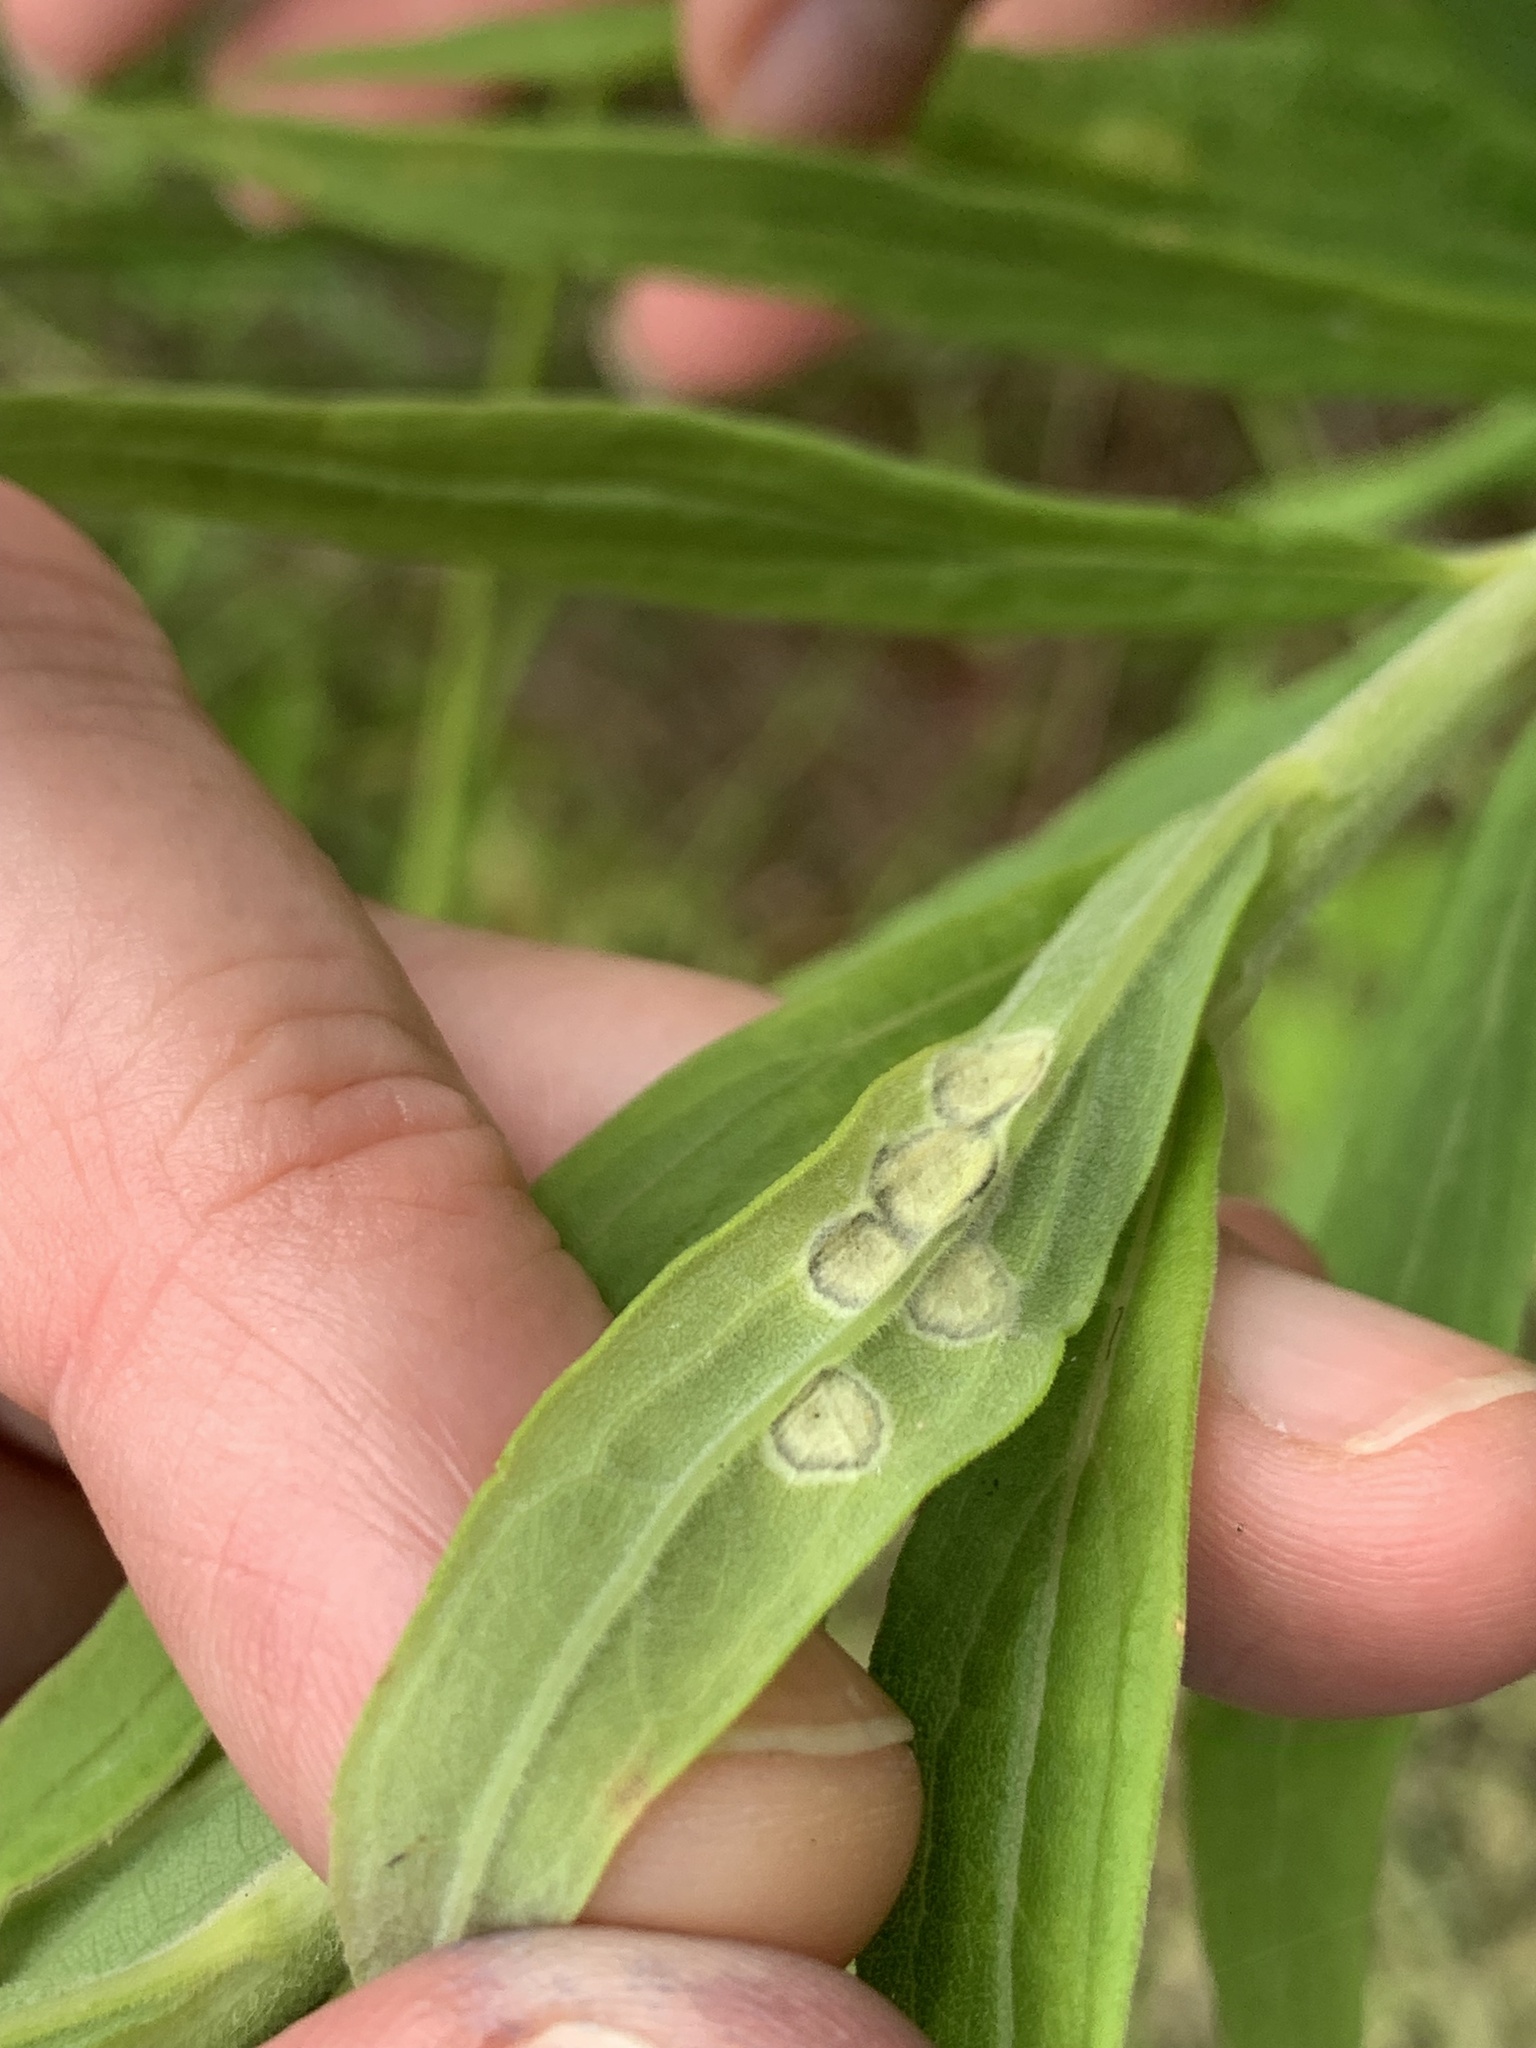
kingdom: Animalia
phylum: Arthropoda
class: Insecta
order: Diptera
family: Cecidomyiidae
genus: Asteromyia
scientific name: Asteromyia carbonifera
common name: Carbonifera goldenrod gall midge
